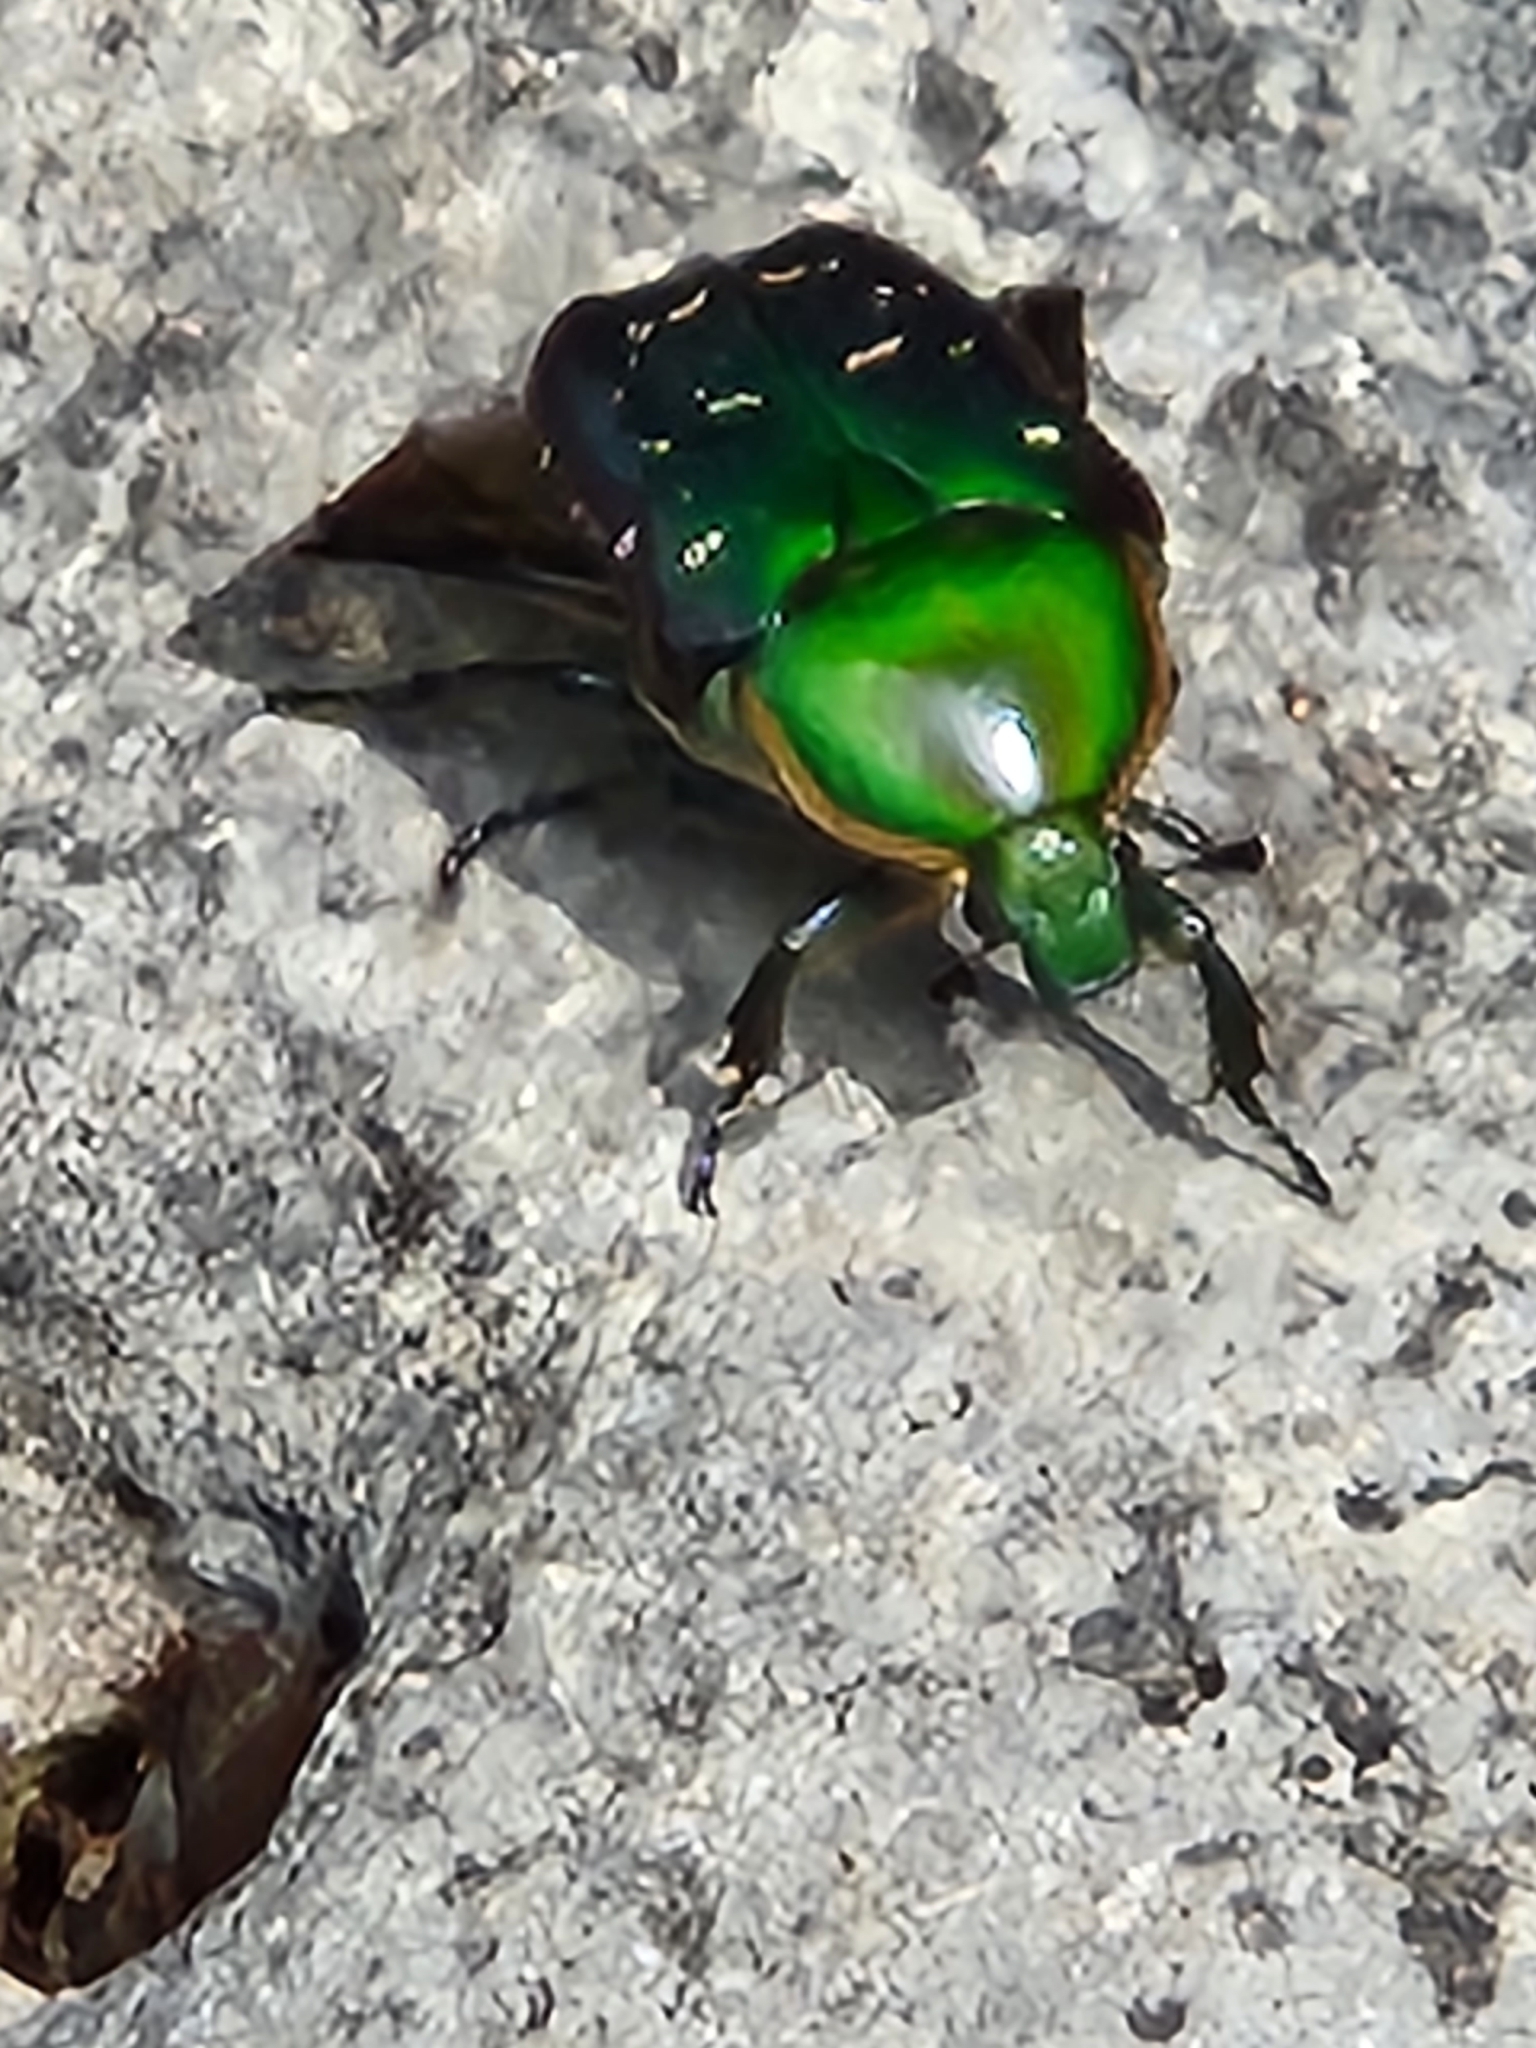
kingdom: Animalia
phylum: Arthropoda
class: Insecta
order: Coleoptera
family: Scarabaeidae
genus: Euphoria
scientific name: Euphoria fulgida
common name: Emerald euphoria
